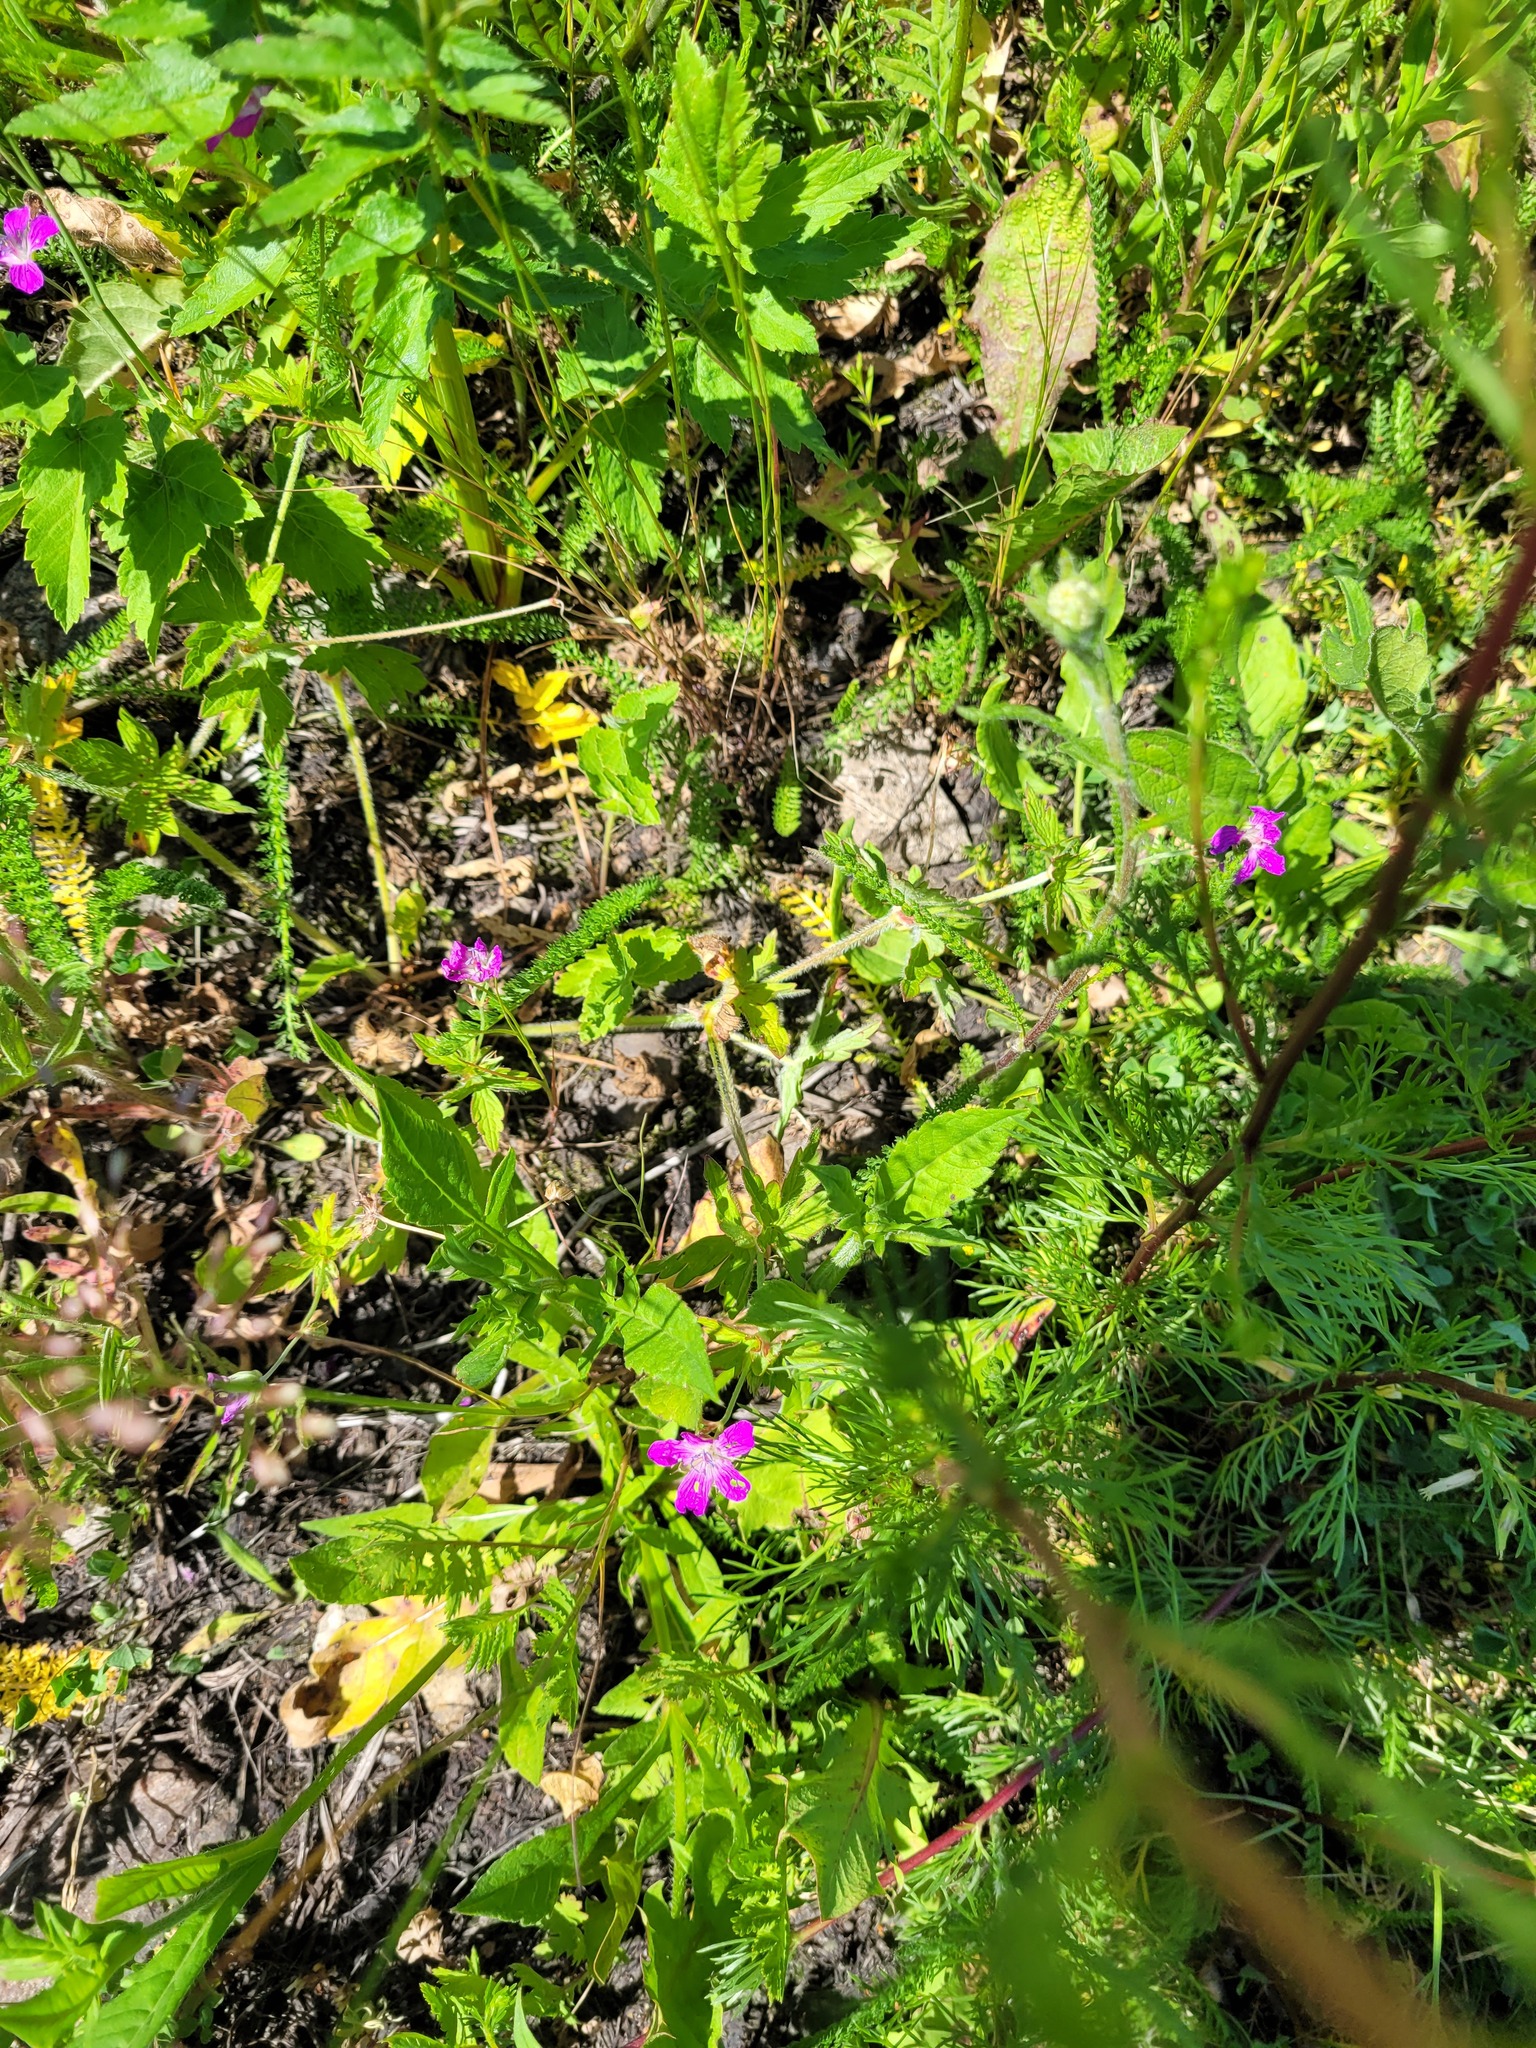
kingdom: Plantae
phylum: Tracheophyta
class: Magnoliopsida
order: Geraniales
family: Geraniaceae
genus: Geranium
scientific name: Geranium palustre
